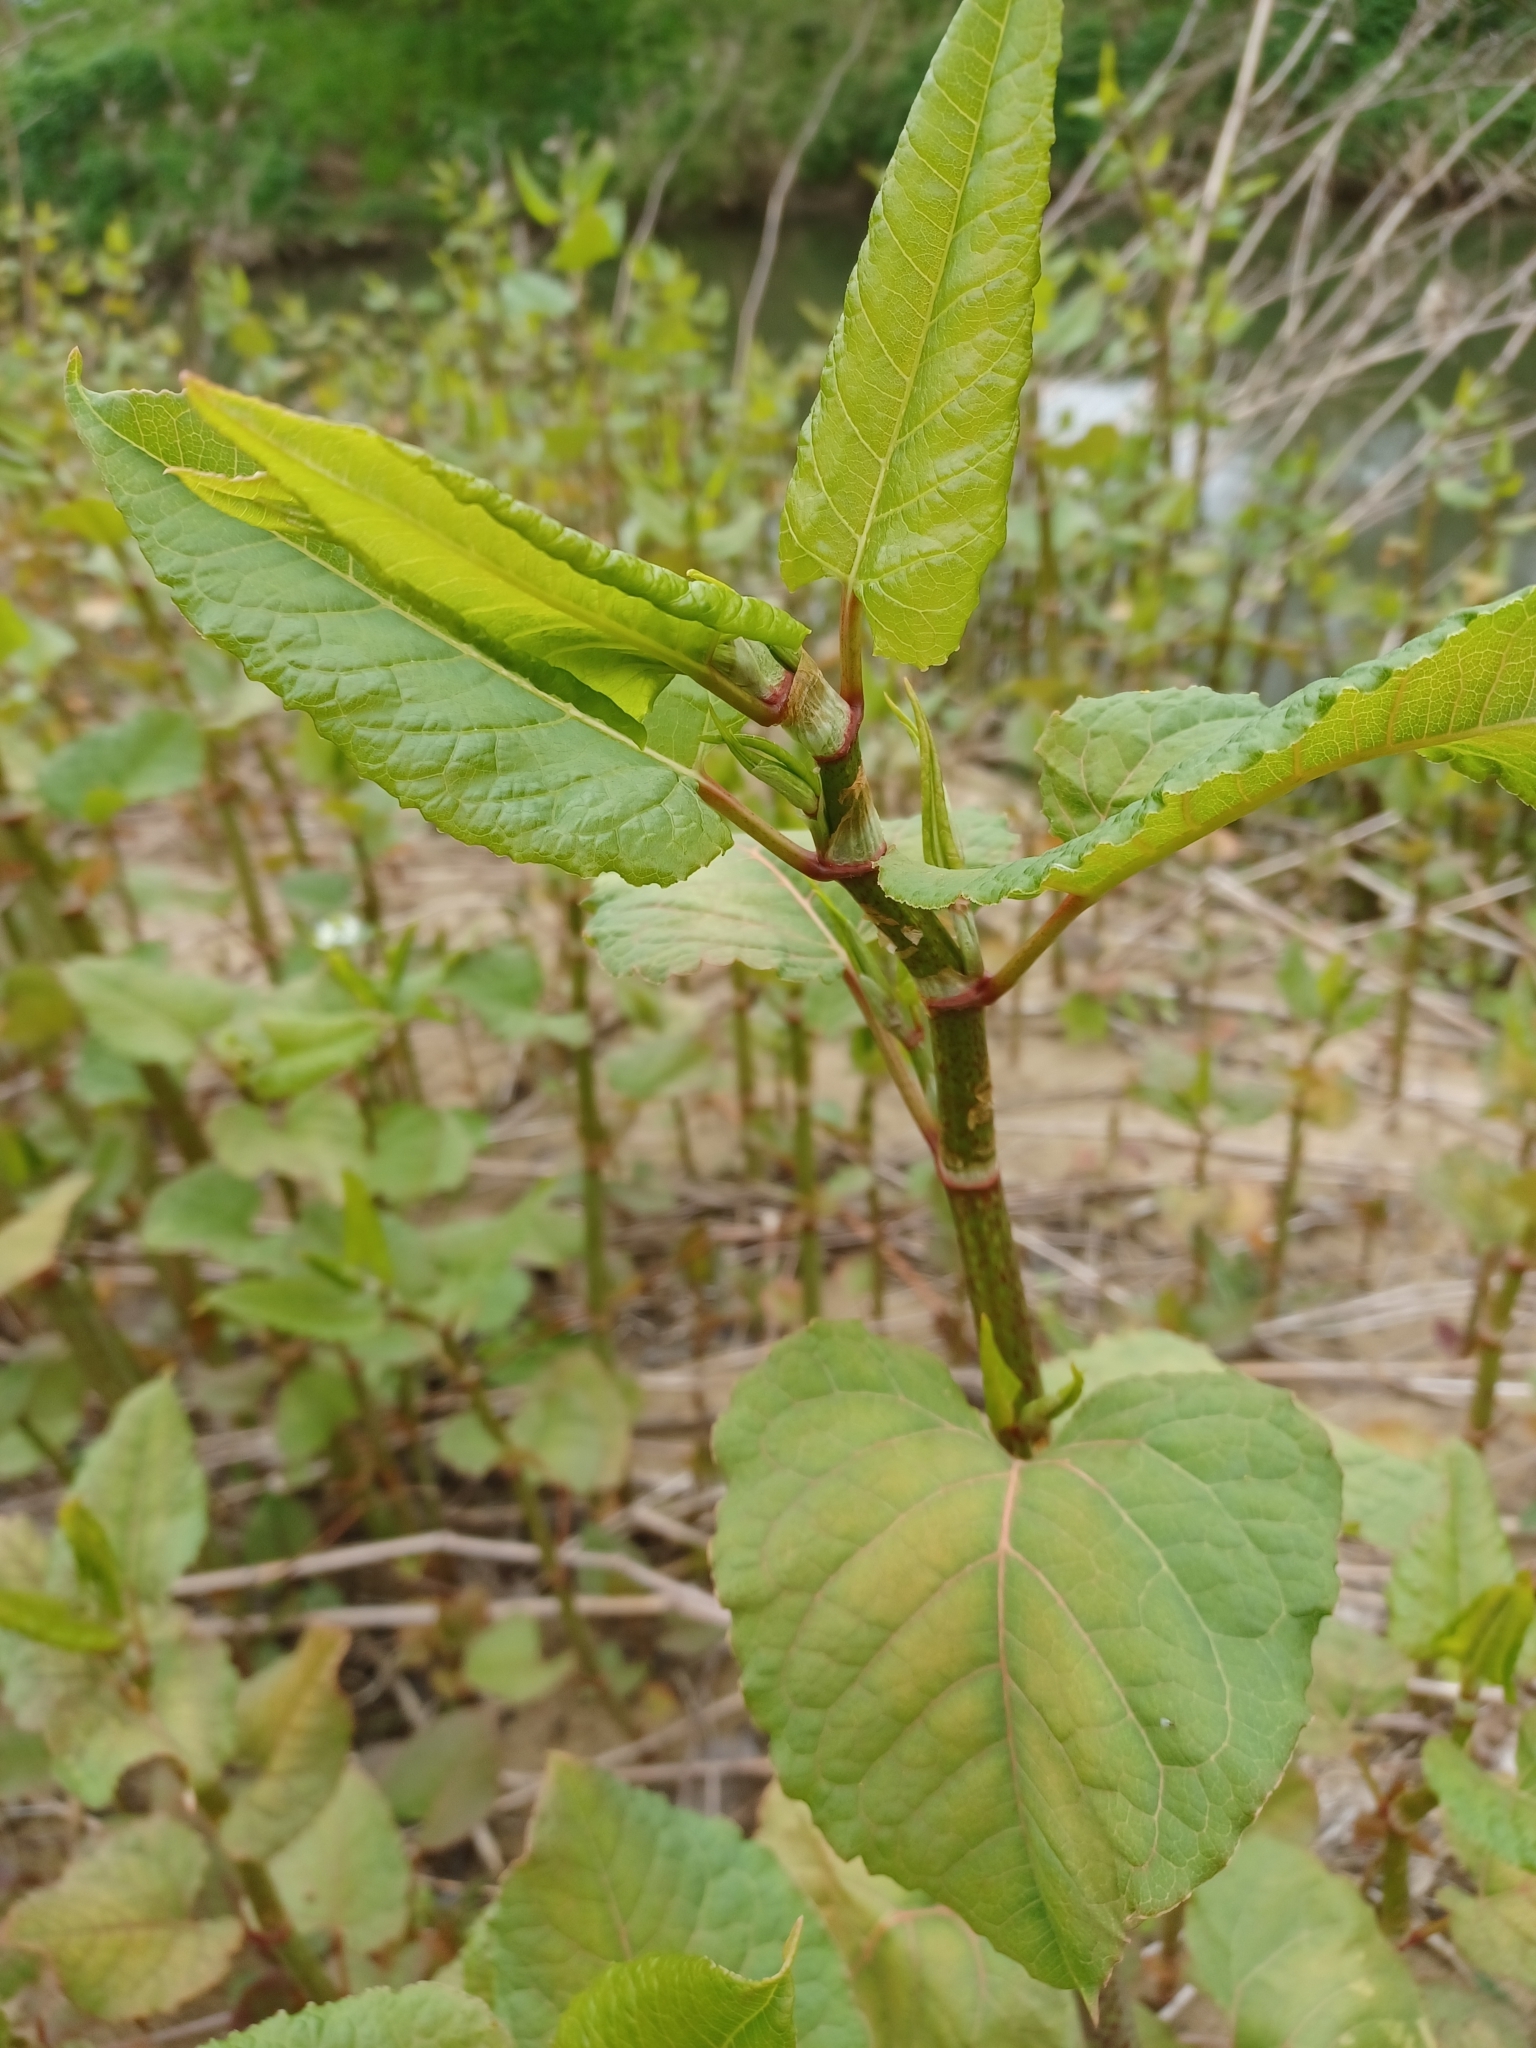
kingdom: Plantae
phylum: Tracheophyta
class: Magnoliopsida
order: Caryophyllales
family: Polygonaceae
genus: Reynoutria
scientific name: Reynoutria japonica
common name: Japanese knotweed
